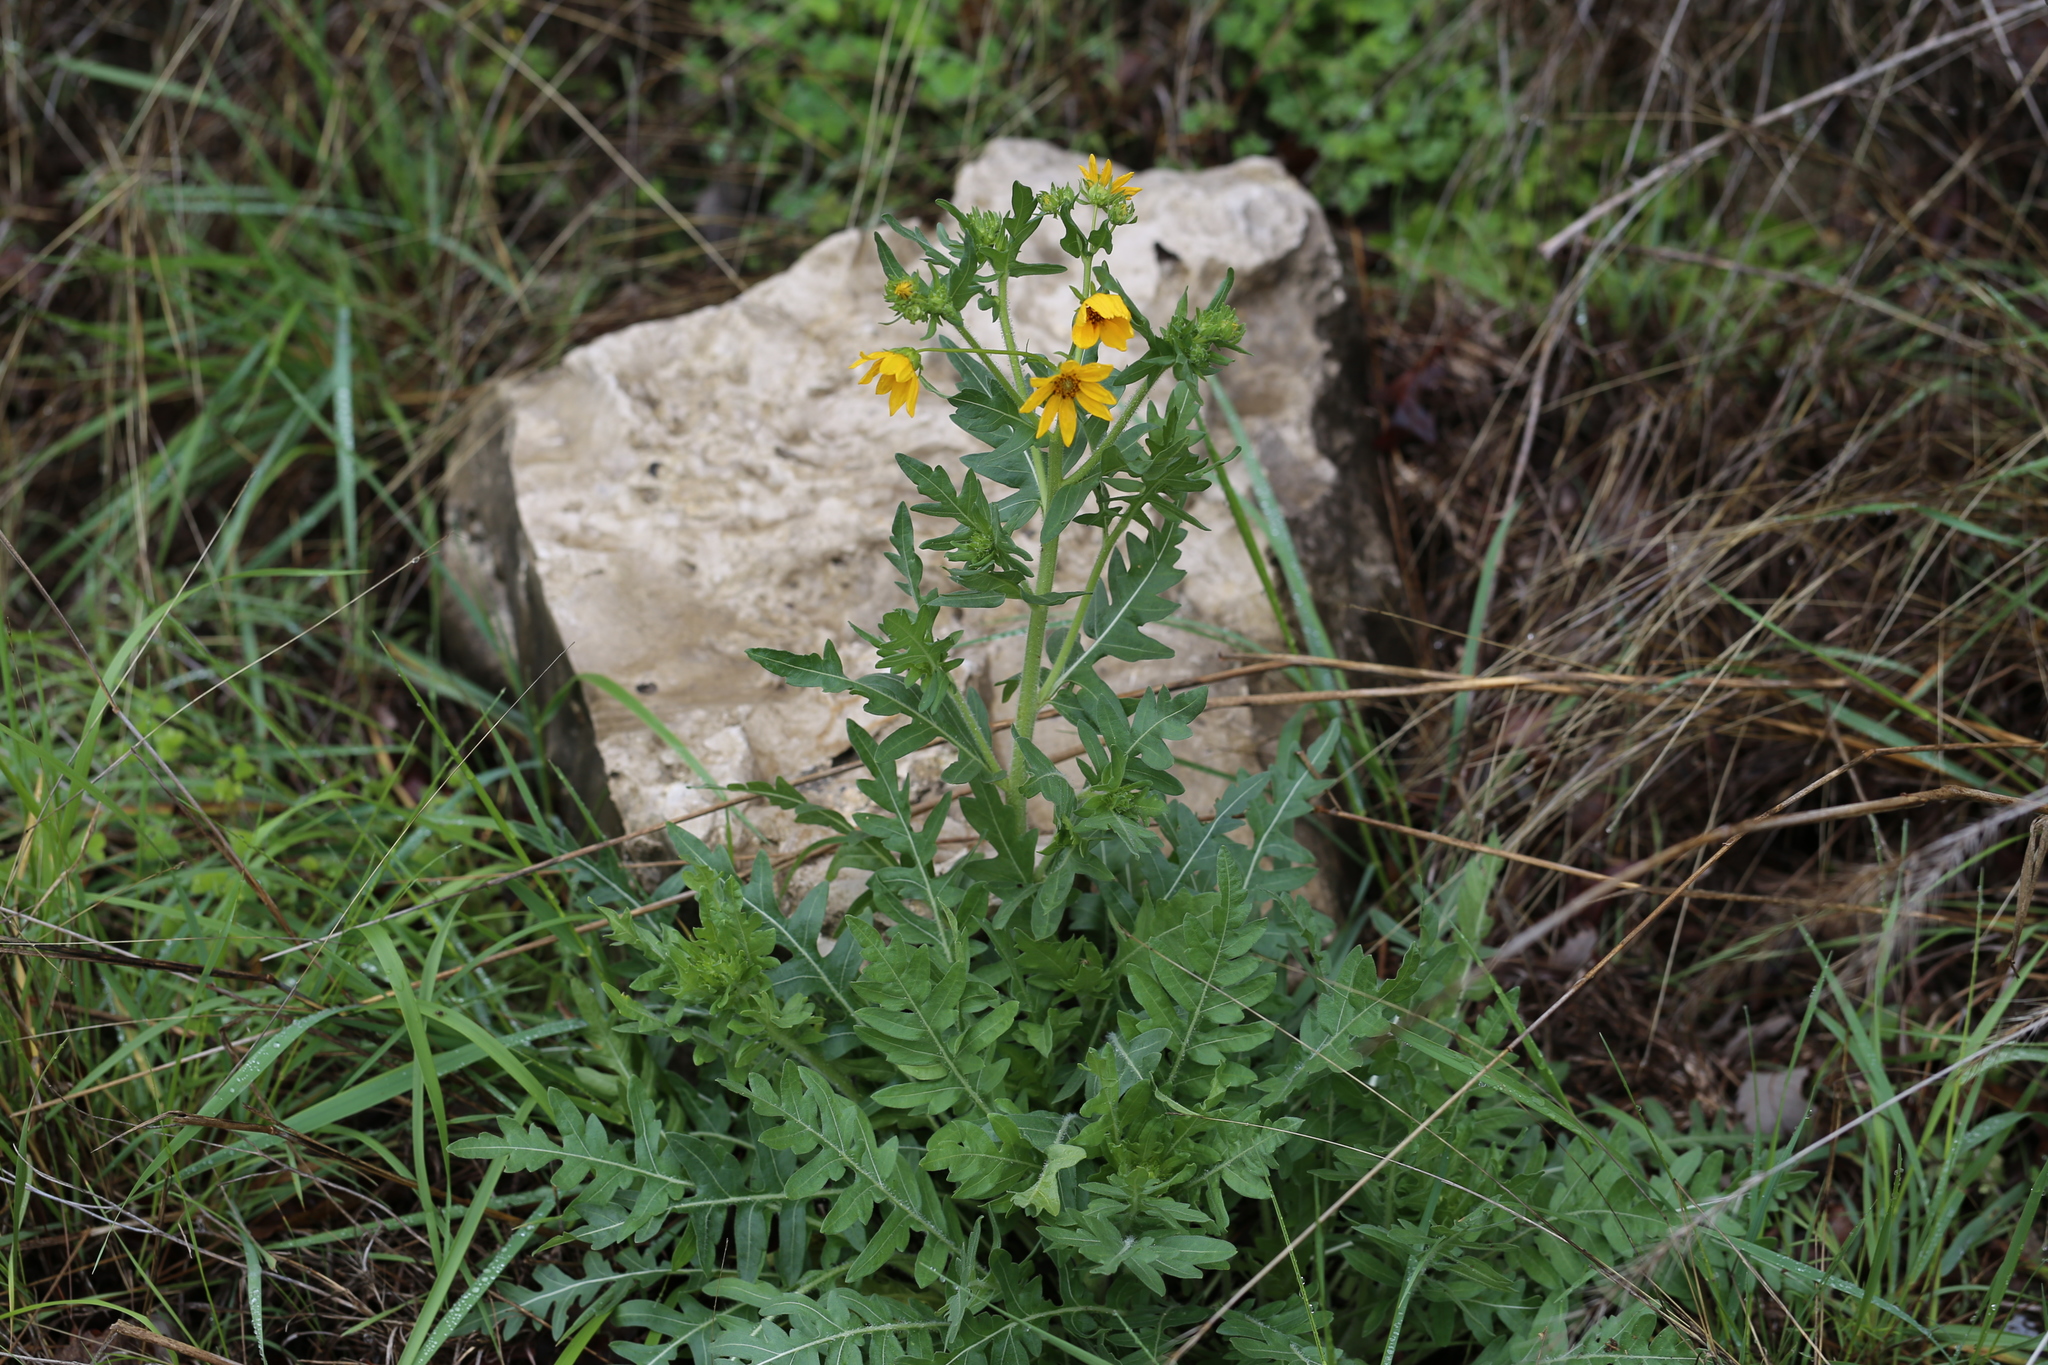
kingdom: Plantae
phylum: Tracheophyta
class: Magnoliopsida
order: Asterales
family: Asteraceae
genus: Engelmannia
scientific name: Engelmannia peristenia
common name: Engelmann's daisy
